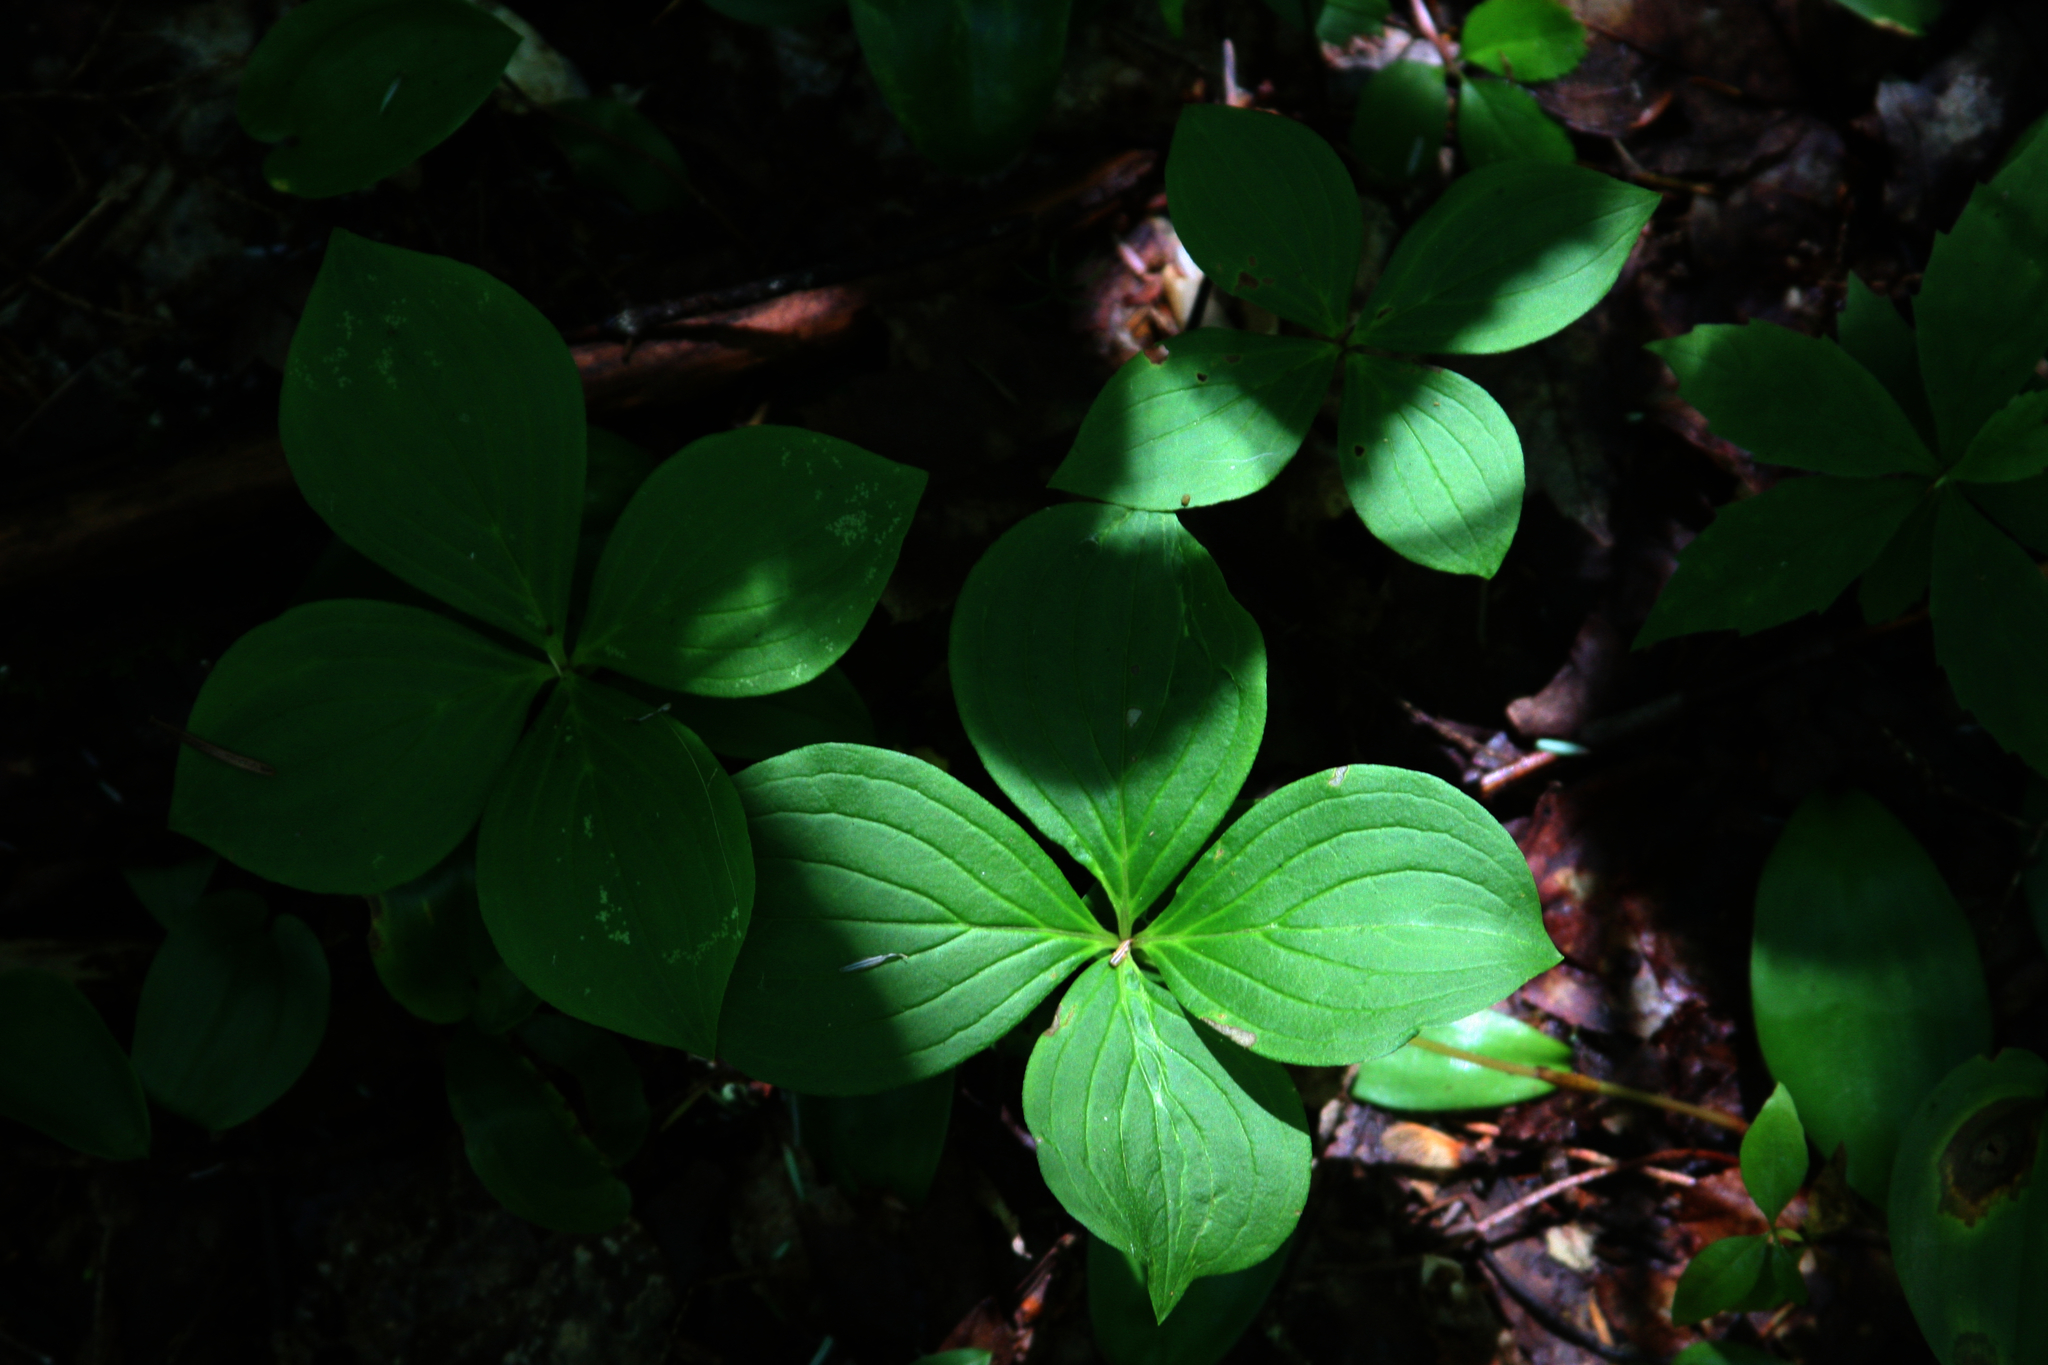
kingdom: Plantae
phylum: Tracheophyta
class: Magnoliopsida
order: Cornales
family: Cornaceae
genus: Cornus
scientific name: Cornus canadensis
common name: Creeping dogwood
